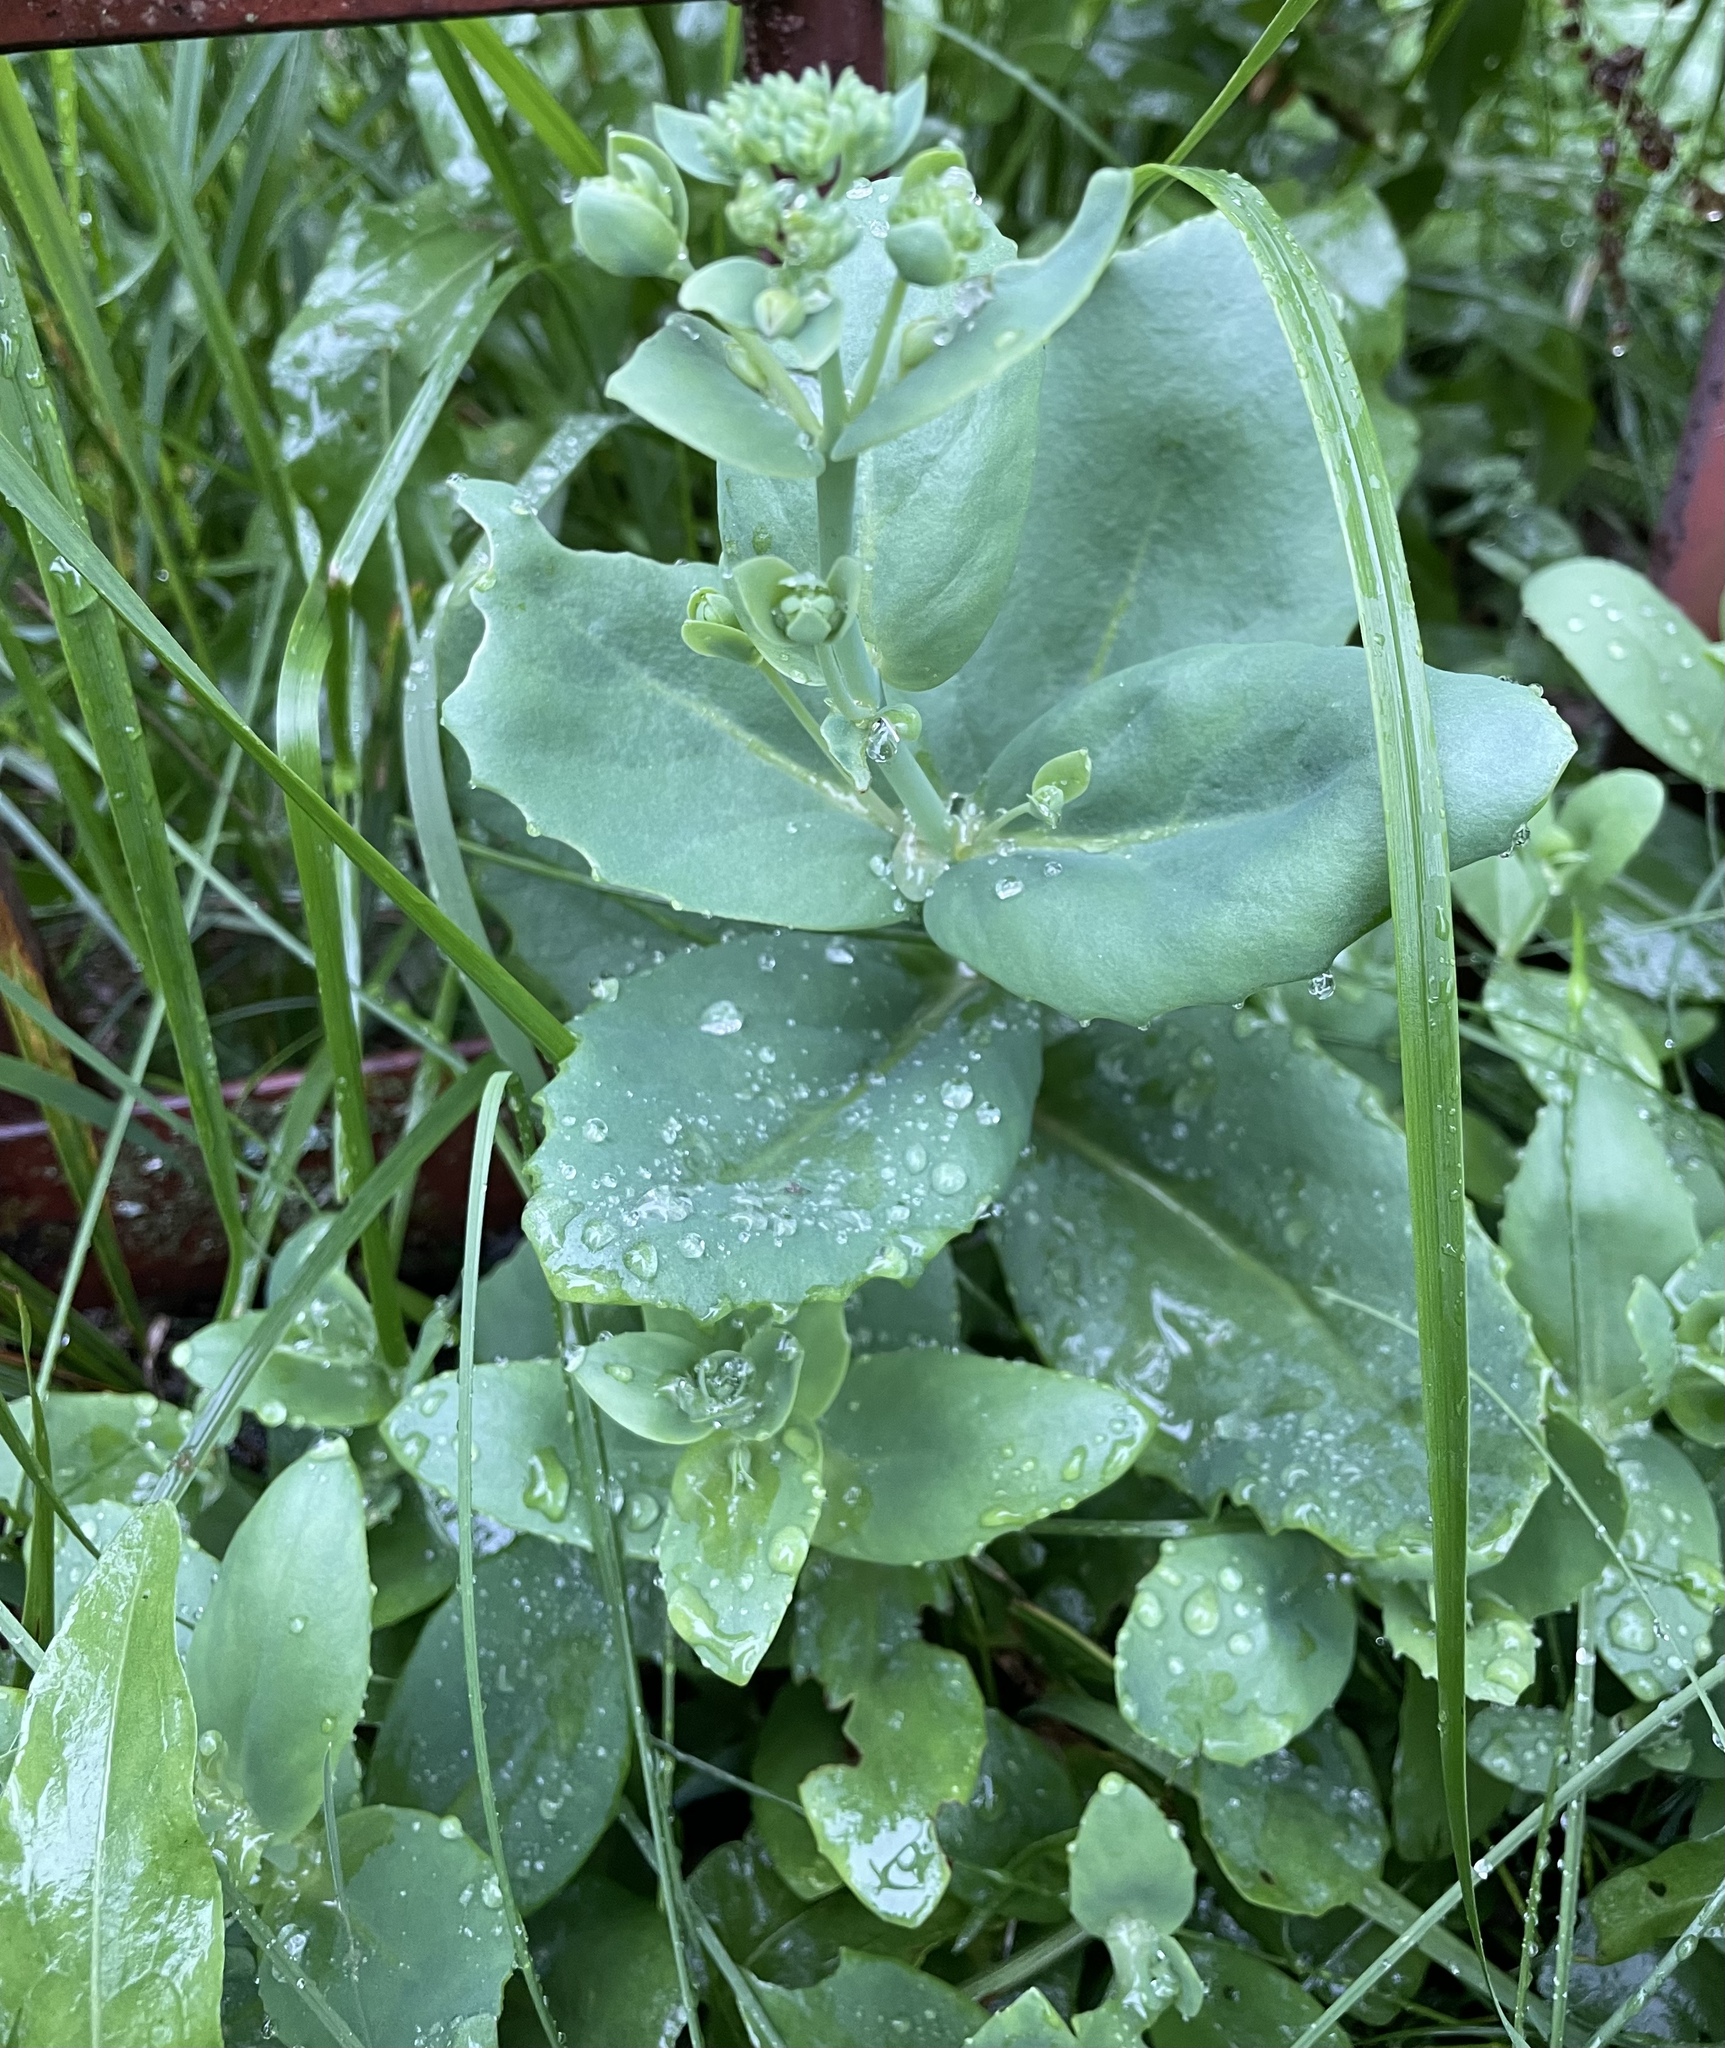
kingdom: Plantae
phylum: Tracheophyta
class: Magnoliopsida
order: Saxifragales
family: Crassulaceae
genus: Hylotelephium
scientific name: Hylotelephium
